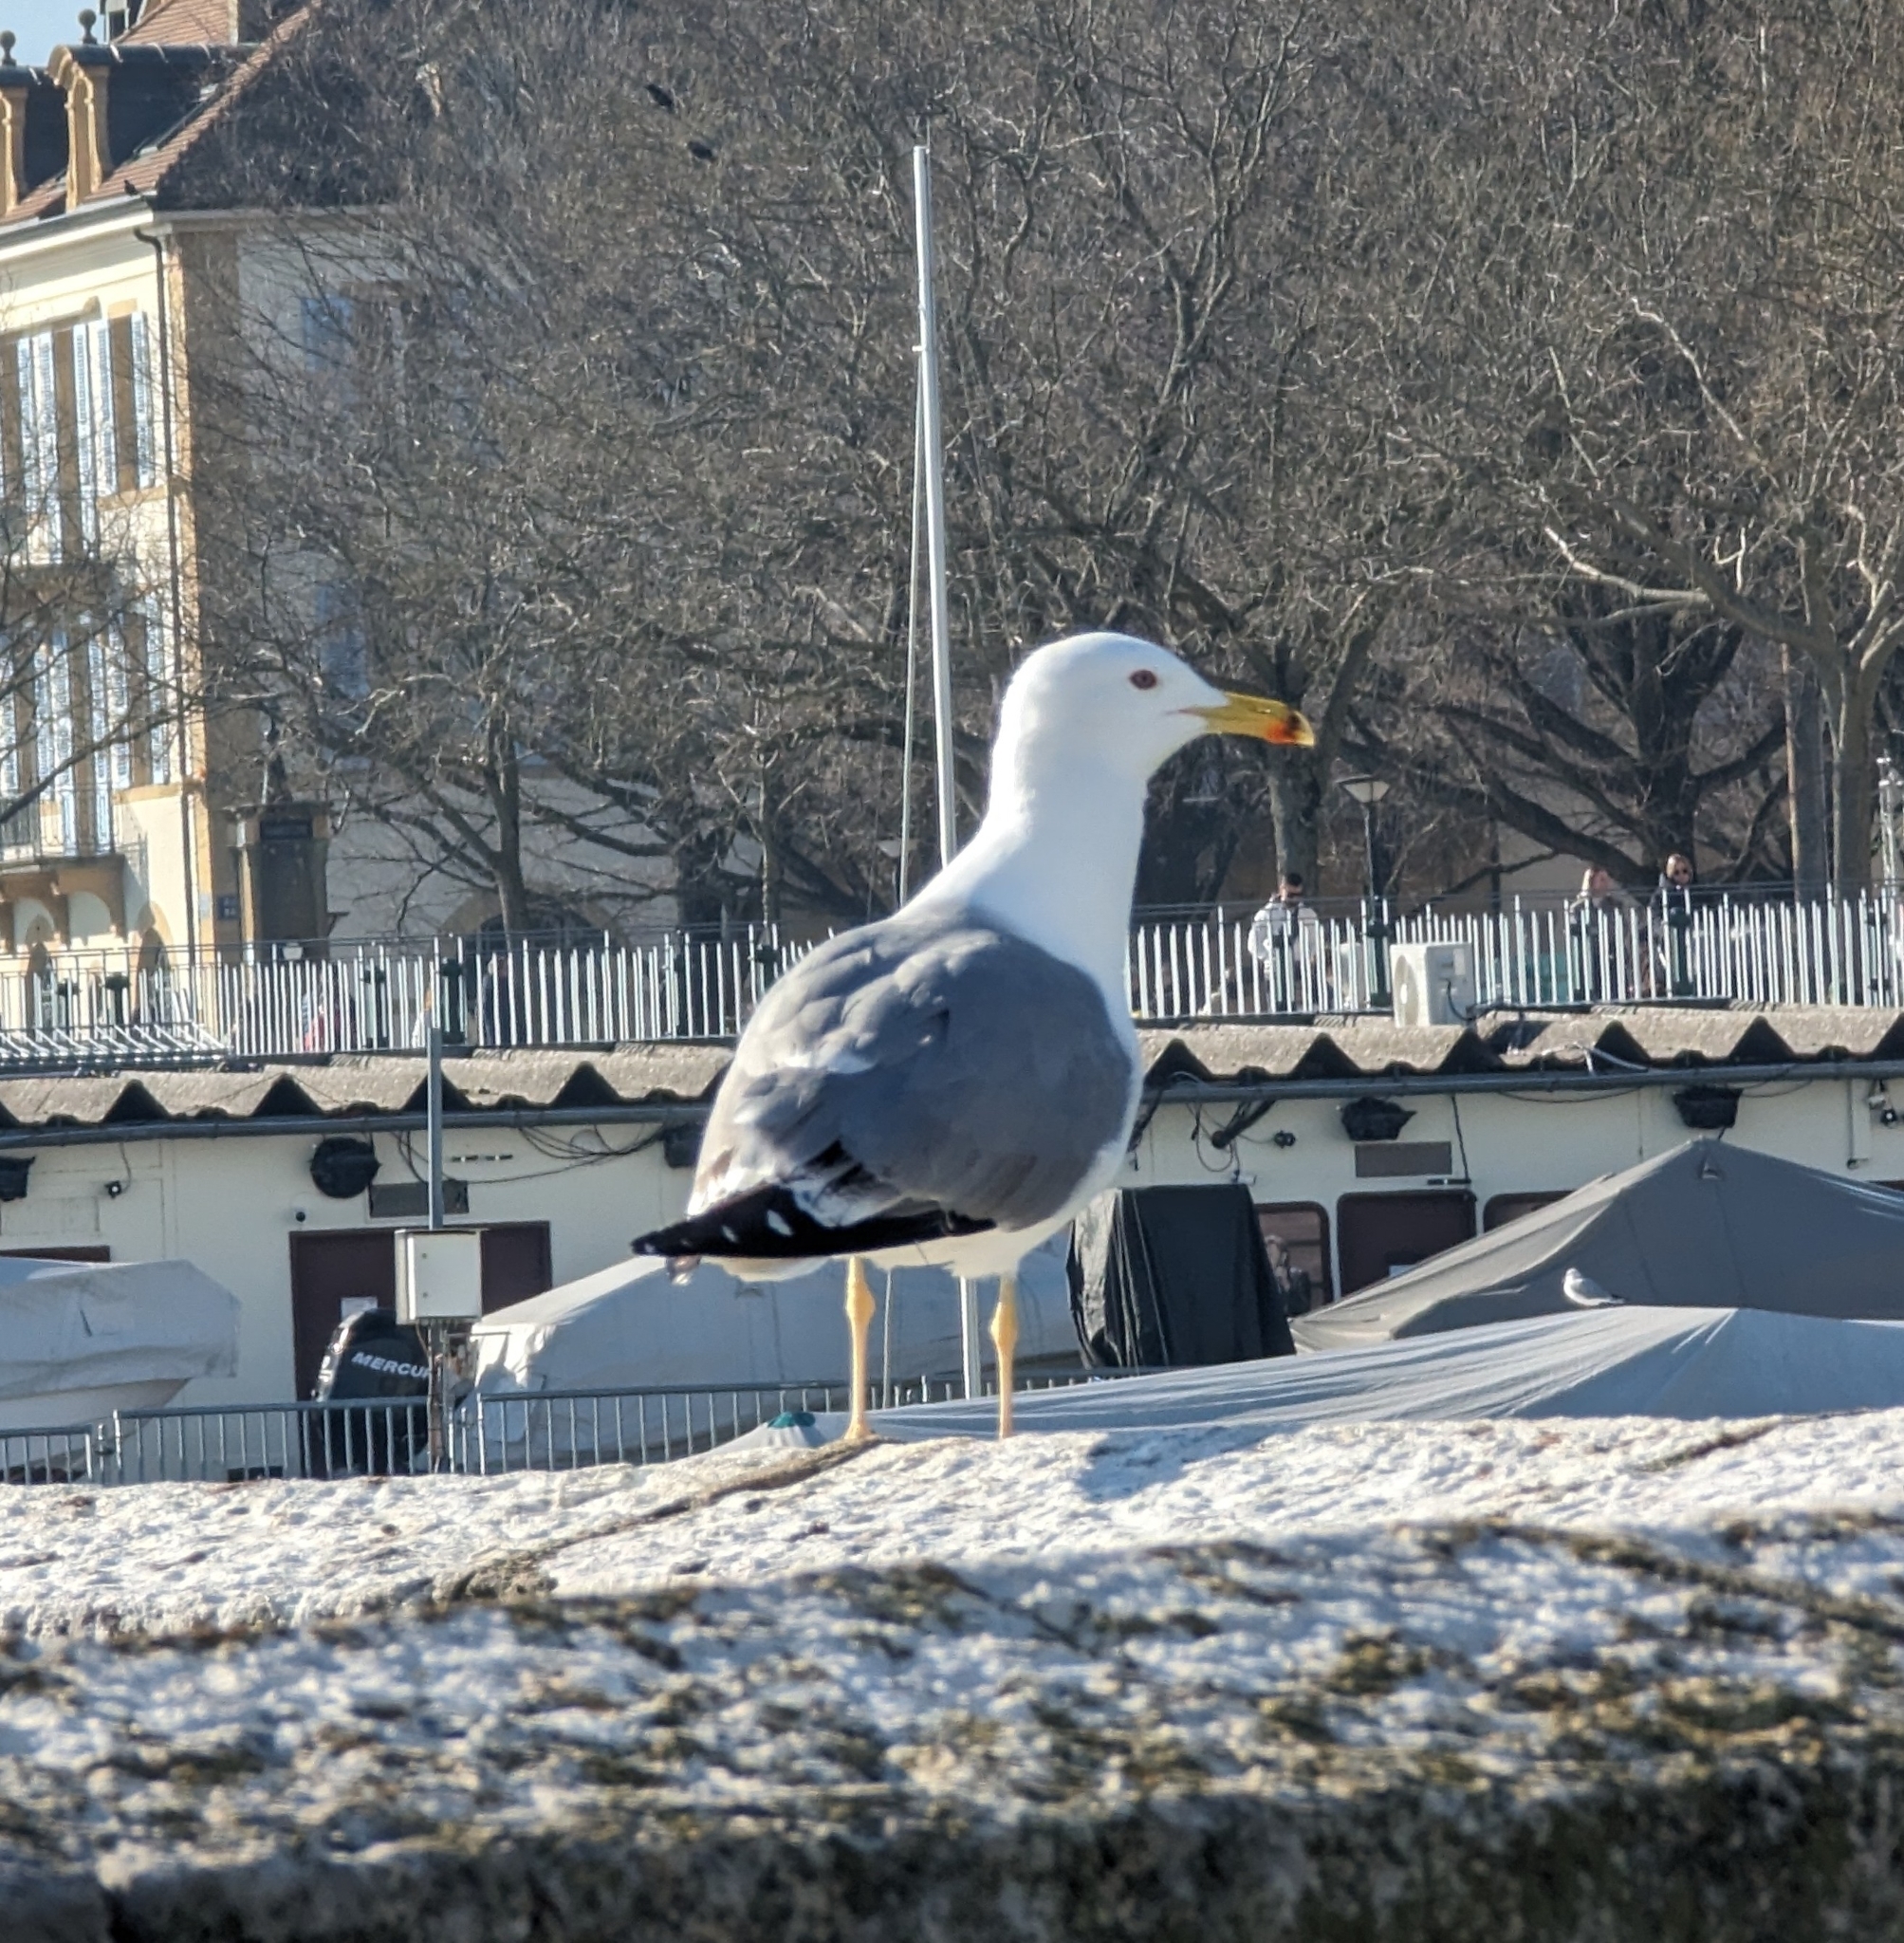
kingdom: Animalia
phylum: Chordata
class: Aves
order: Charadriiformes
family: Laridae
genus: Larus
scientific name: Larus michahellis
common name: Yellow-legged gull
